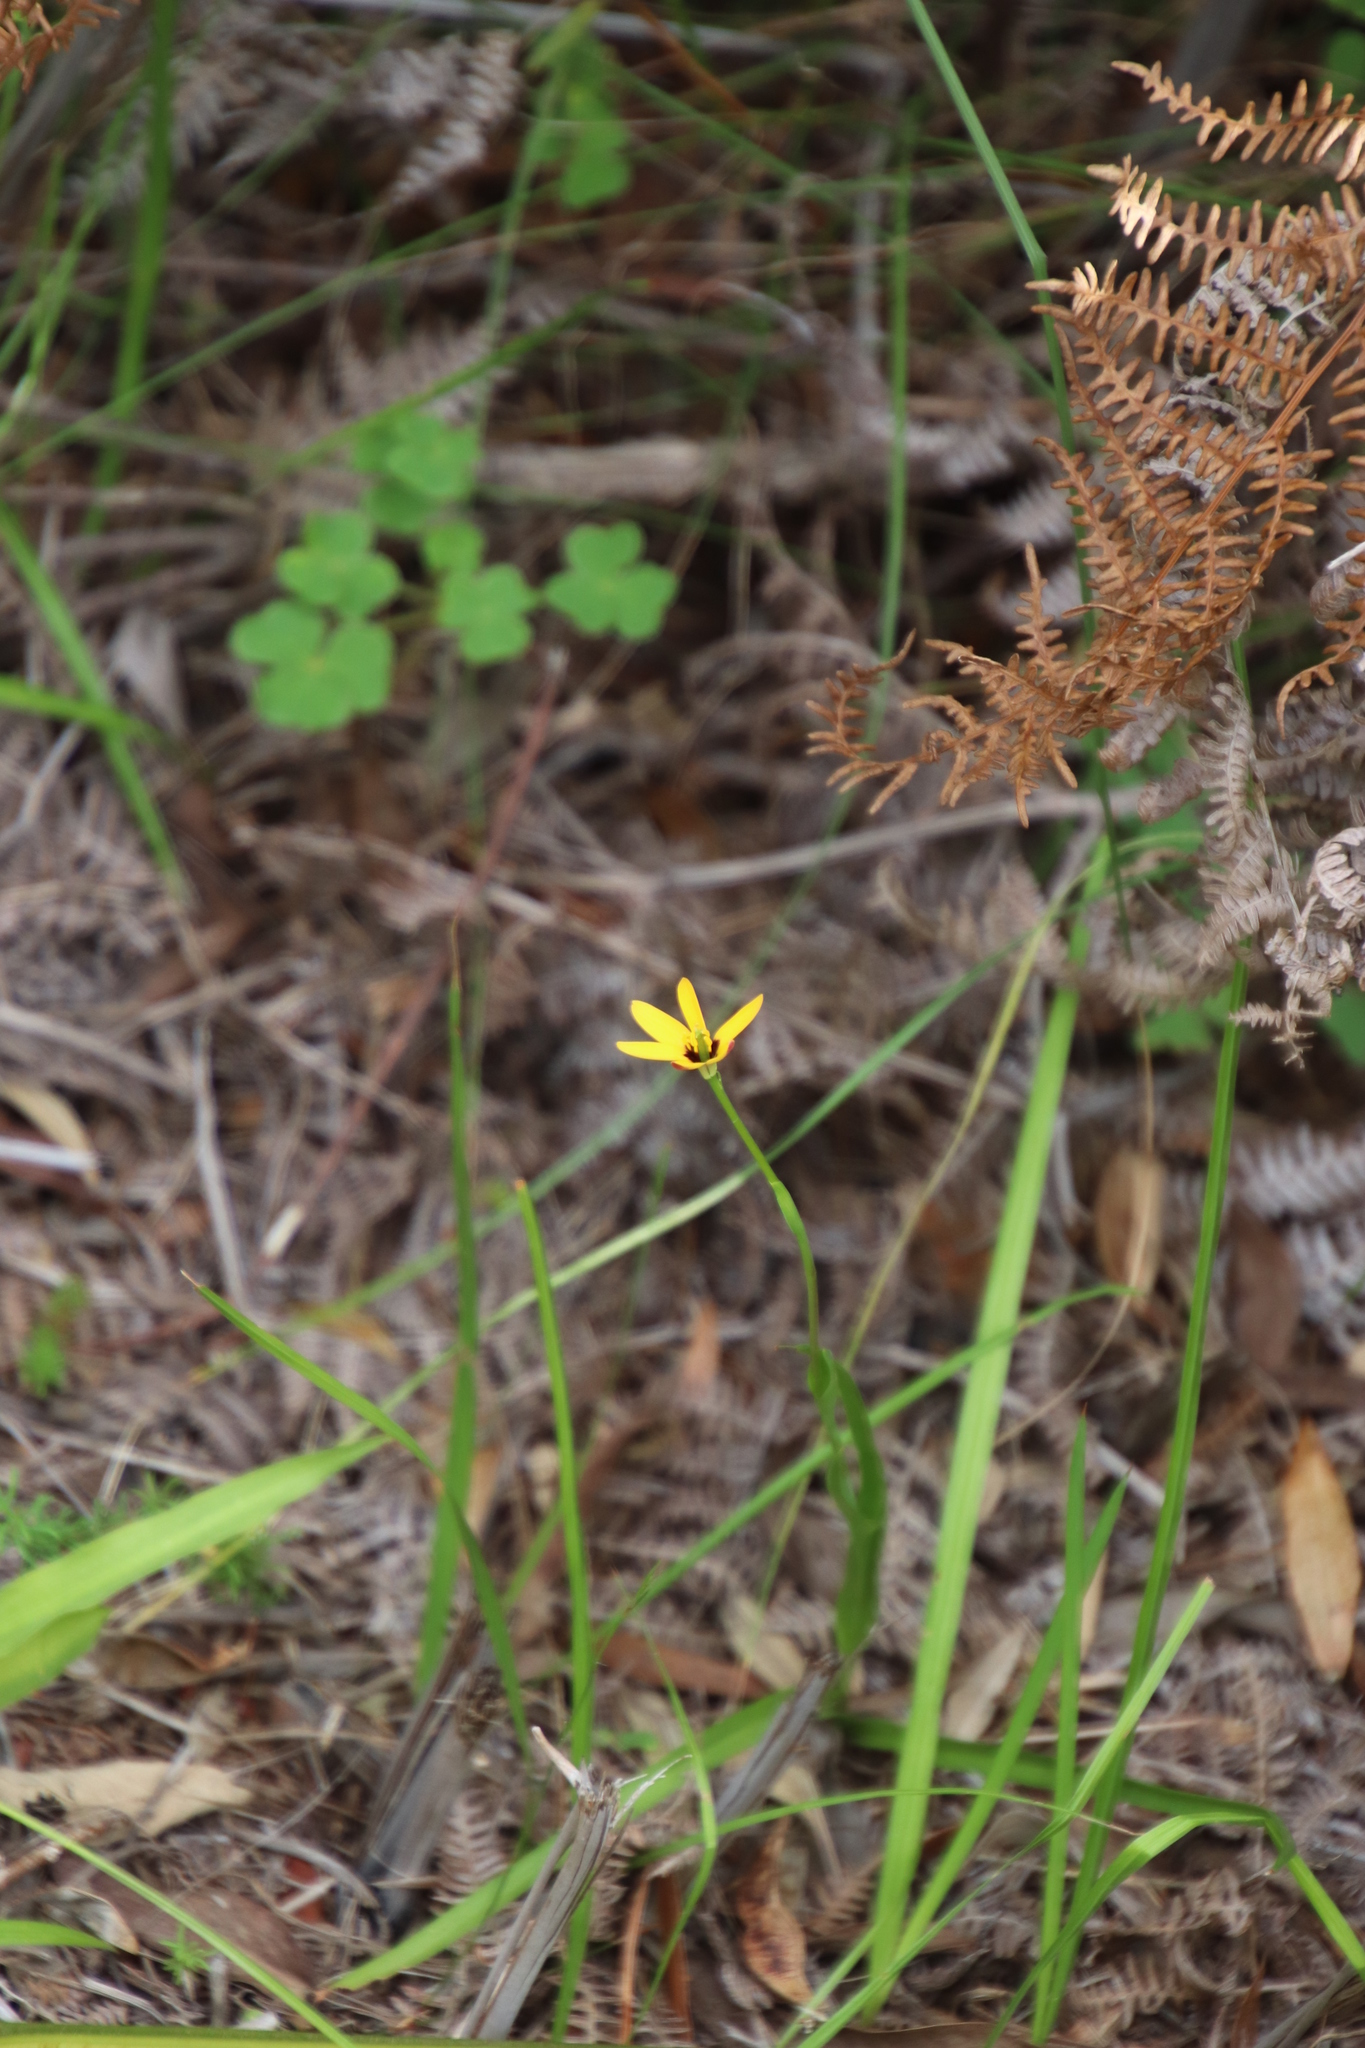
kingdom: Plantae
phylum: Tracheophyta
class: Liliopsida
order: Liliales
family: Colchicaceae
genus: Baeometra
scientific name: Baeometra uniflora
